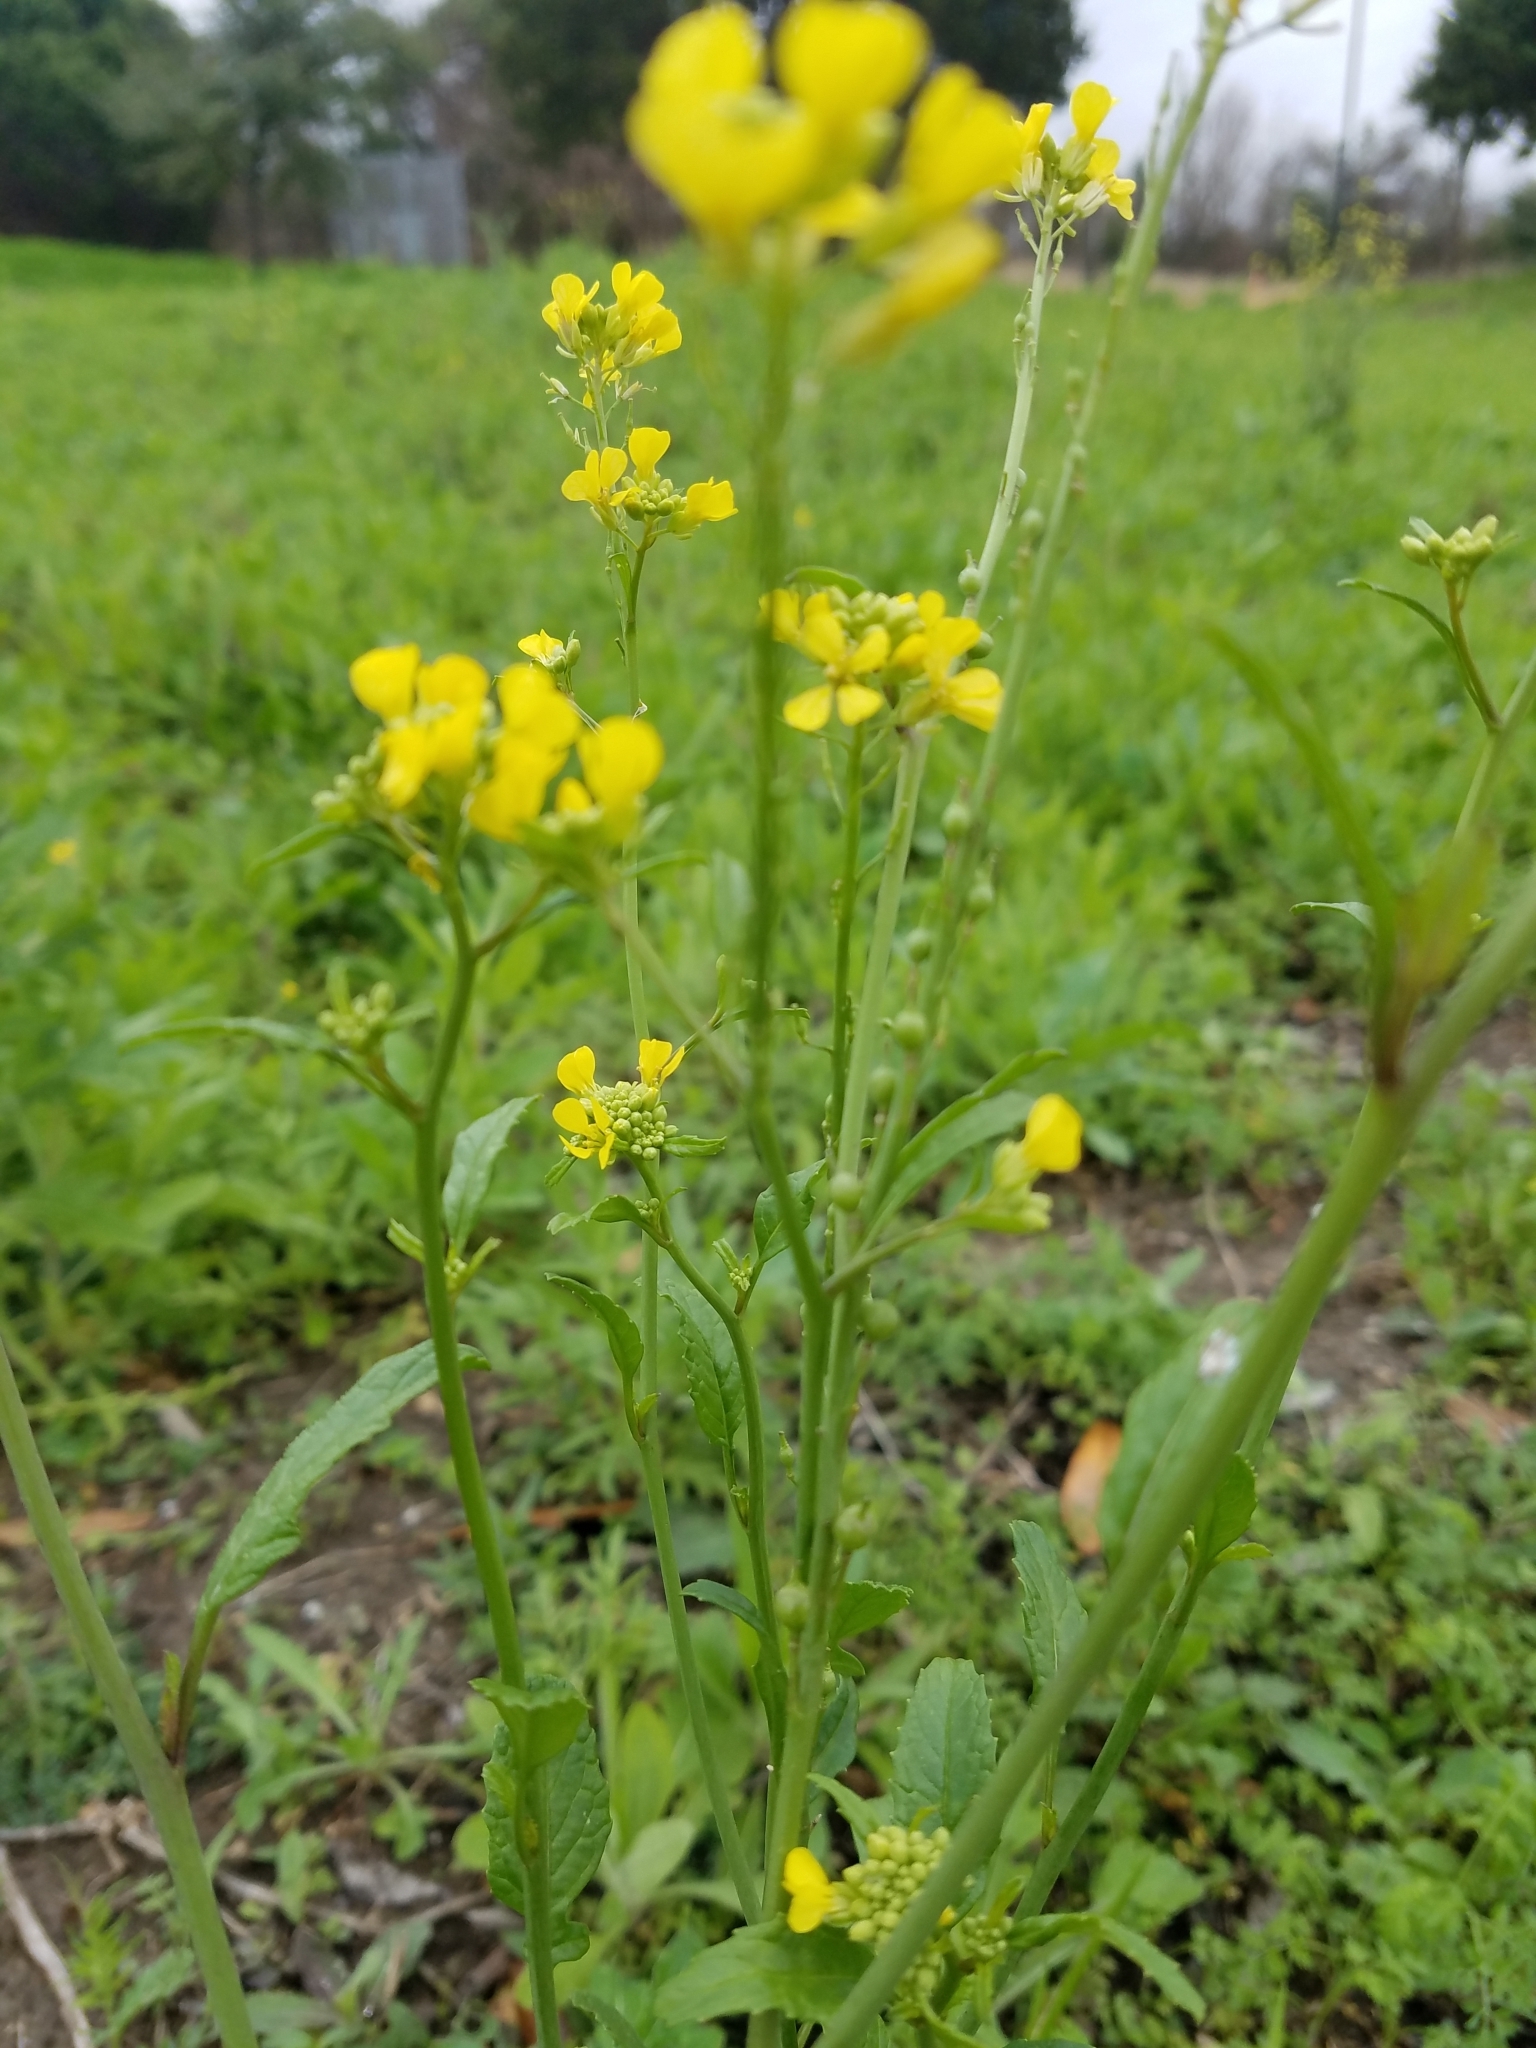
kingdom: Plantae
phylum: Tracheophyta
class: Magnoliopsida
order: Brassicales
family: Brassicaceae
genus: Rapistrum
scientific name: Rapistrum rugosum
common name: Annual bastardcabbage
